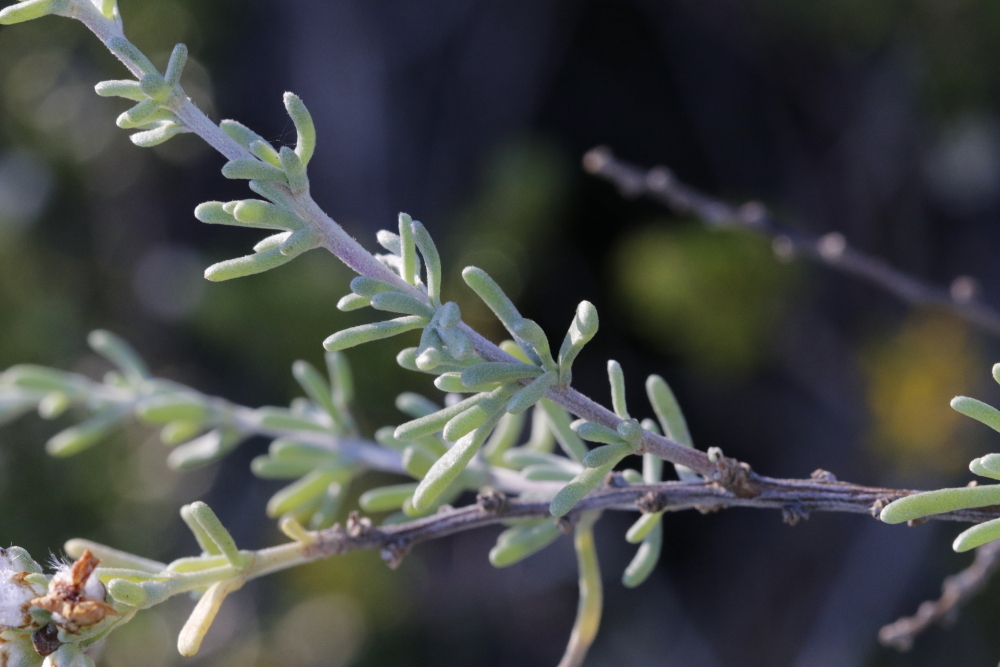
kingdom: Plantae
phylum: Tracheophyta
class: Magnoliopsida
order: Asterales
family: Asteraceae
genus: Eriocephalus
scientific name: Eriocephalus africanus
